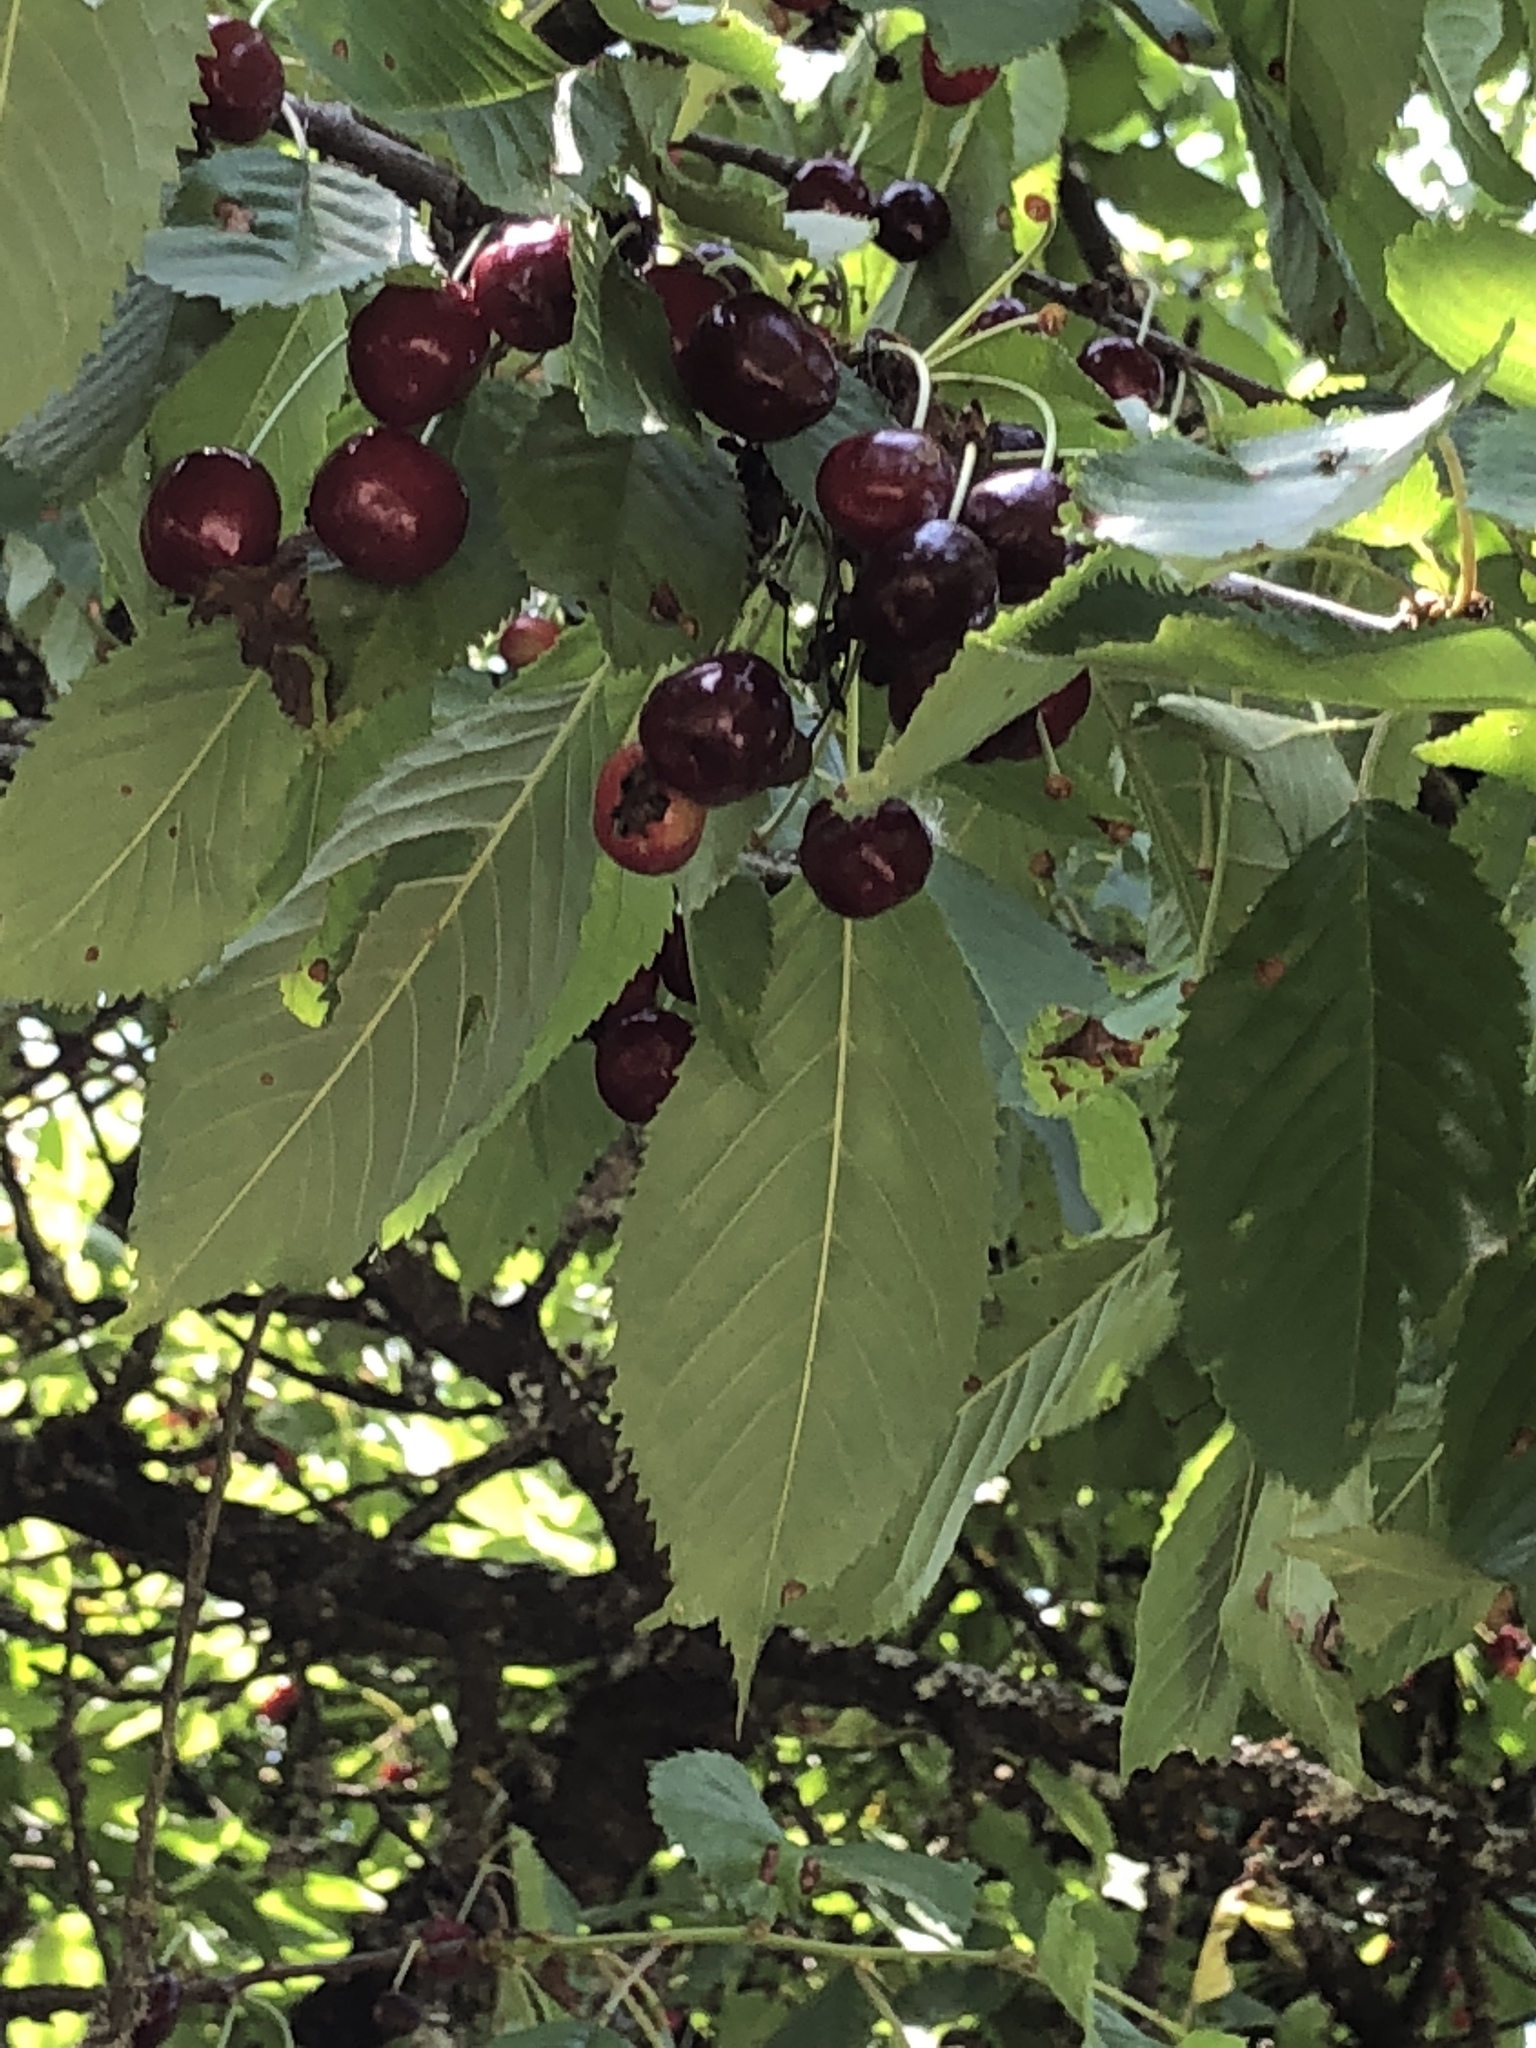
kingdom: Plantae
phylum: Tracheophyta
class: Magnoliopsida
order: Rosales
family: Rosaceae
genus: Prunus
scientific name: Prunus avium
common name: Sweet cherry
